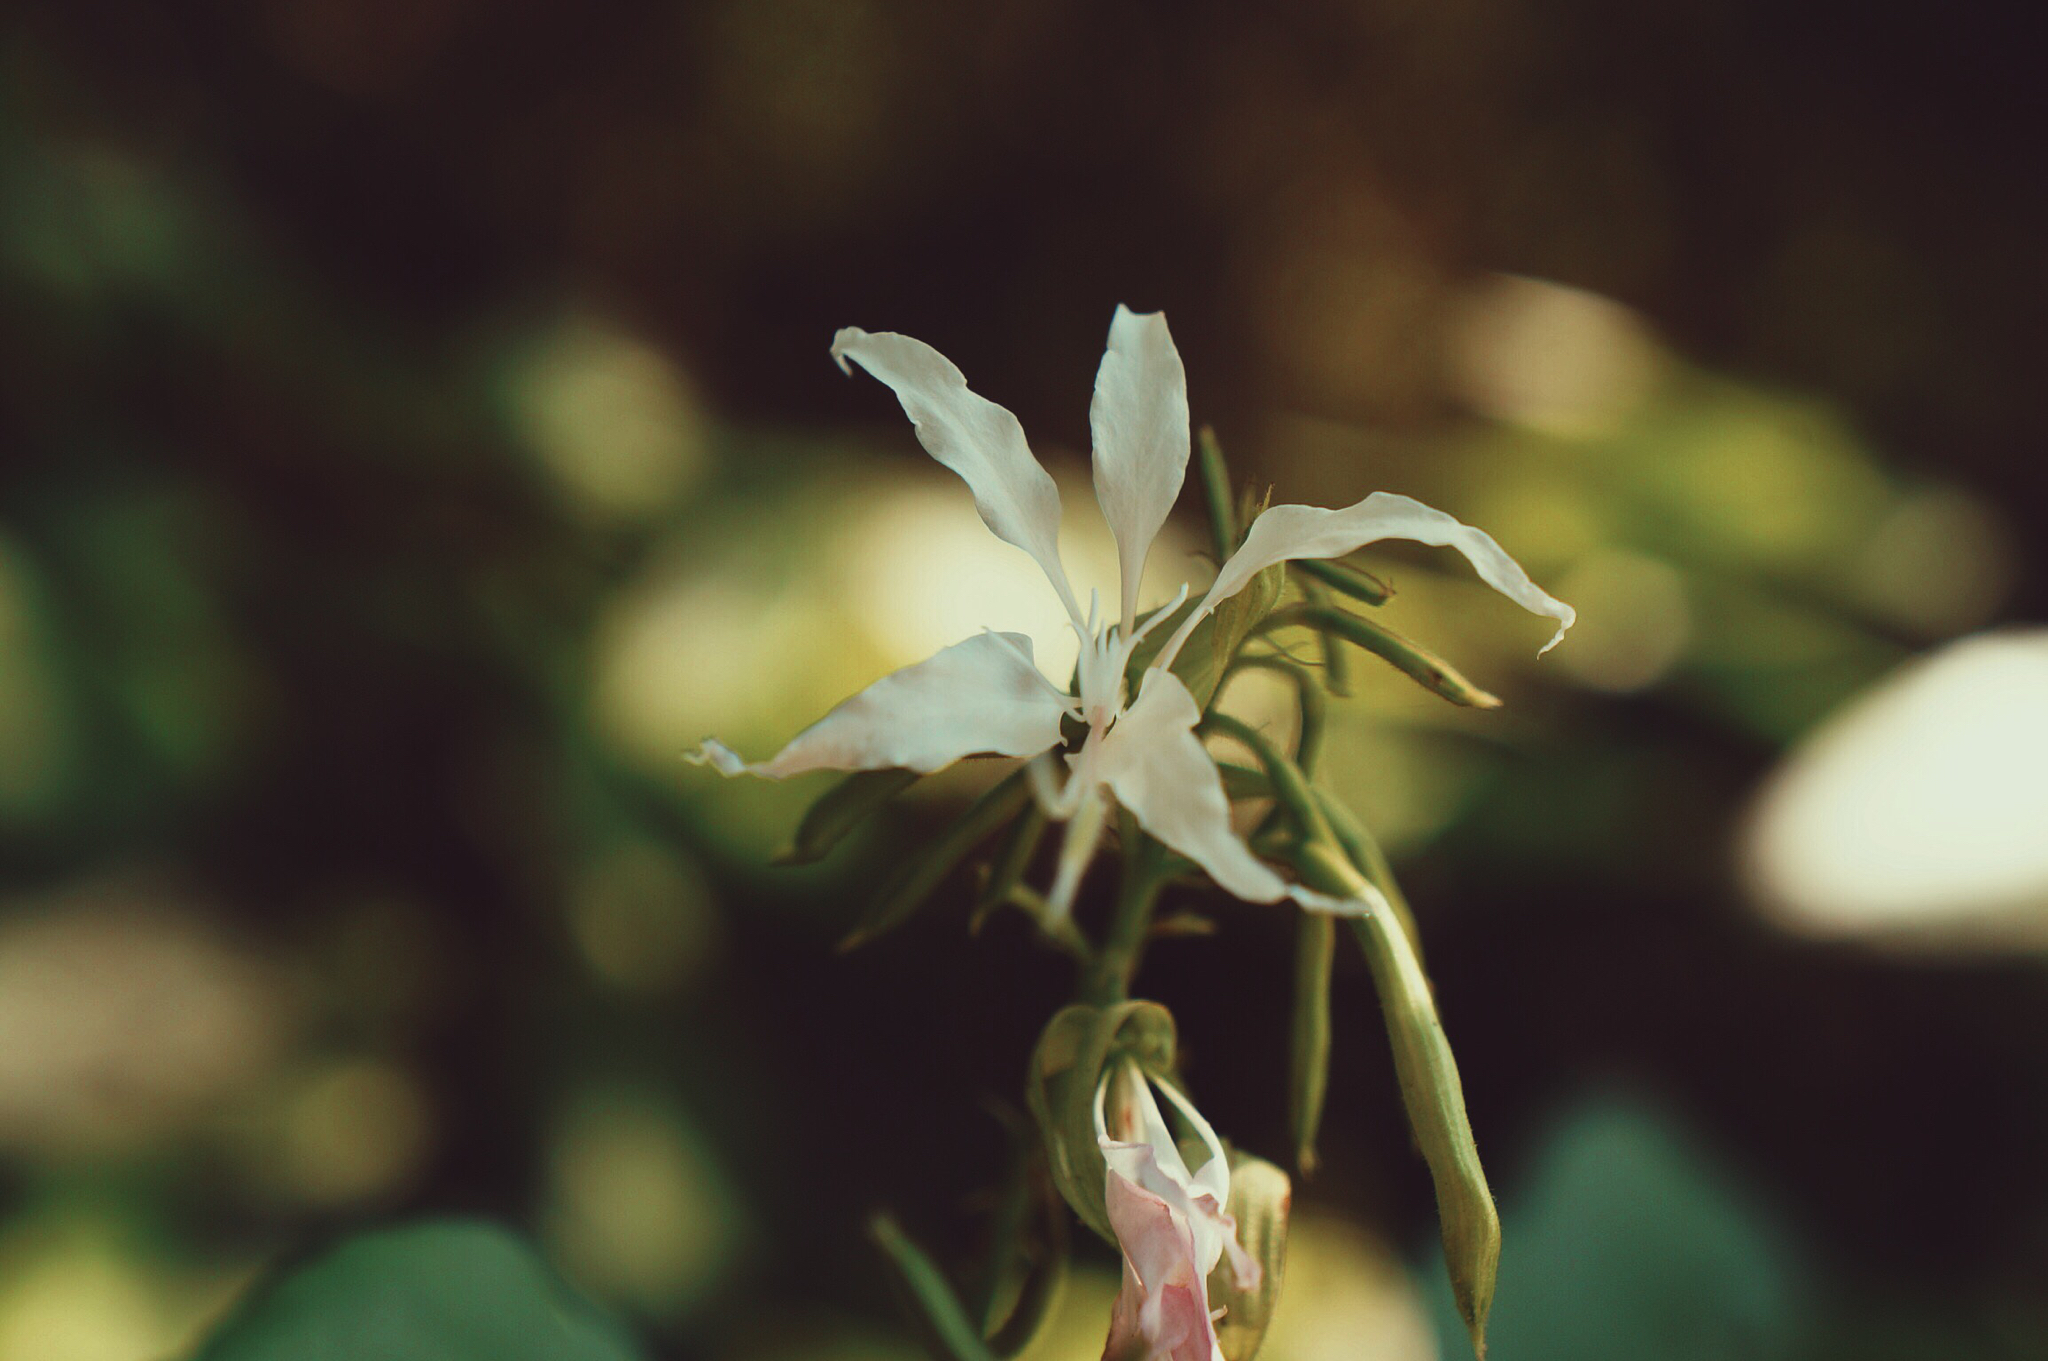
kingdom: Plantae
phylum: Tracheophyta
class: Magnoliopsida
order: Fabales
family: Fabaceae
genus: Bauhinia
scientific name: Bauhinia divaricata
